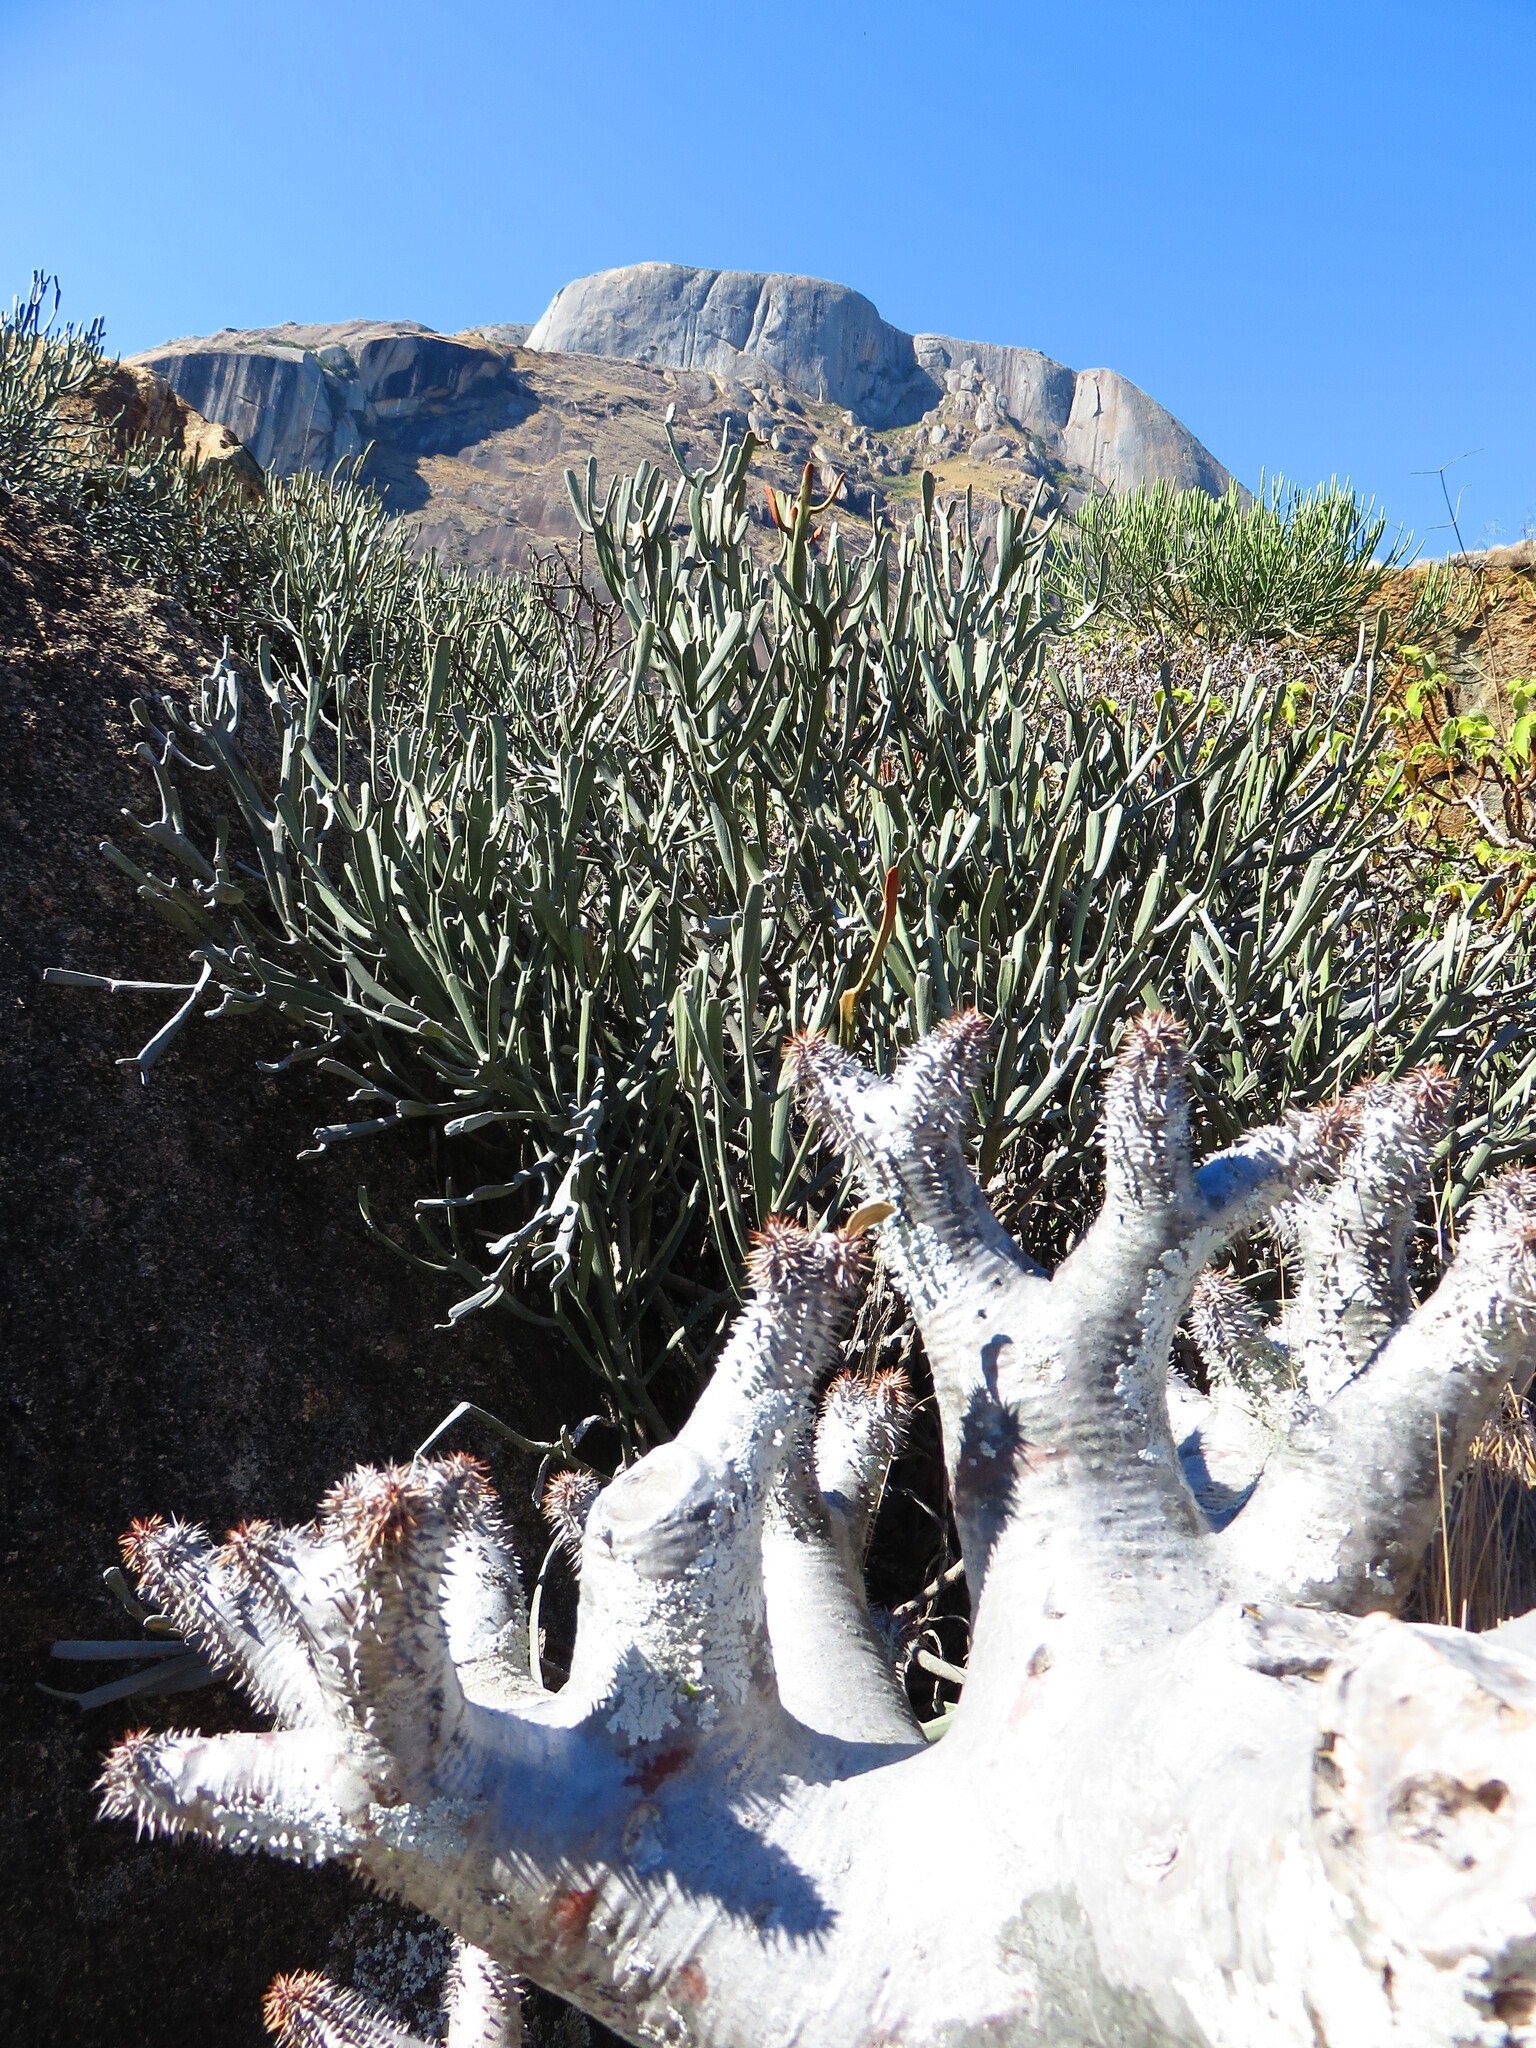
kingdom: Plantae
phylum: Tracheophyta
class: Magnoliopsida
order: Malpighiales
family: Euphorbiaceae
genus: Euphorbia
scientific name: Euphorbia xylophylloides
